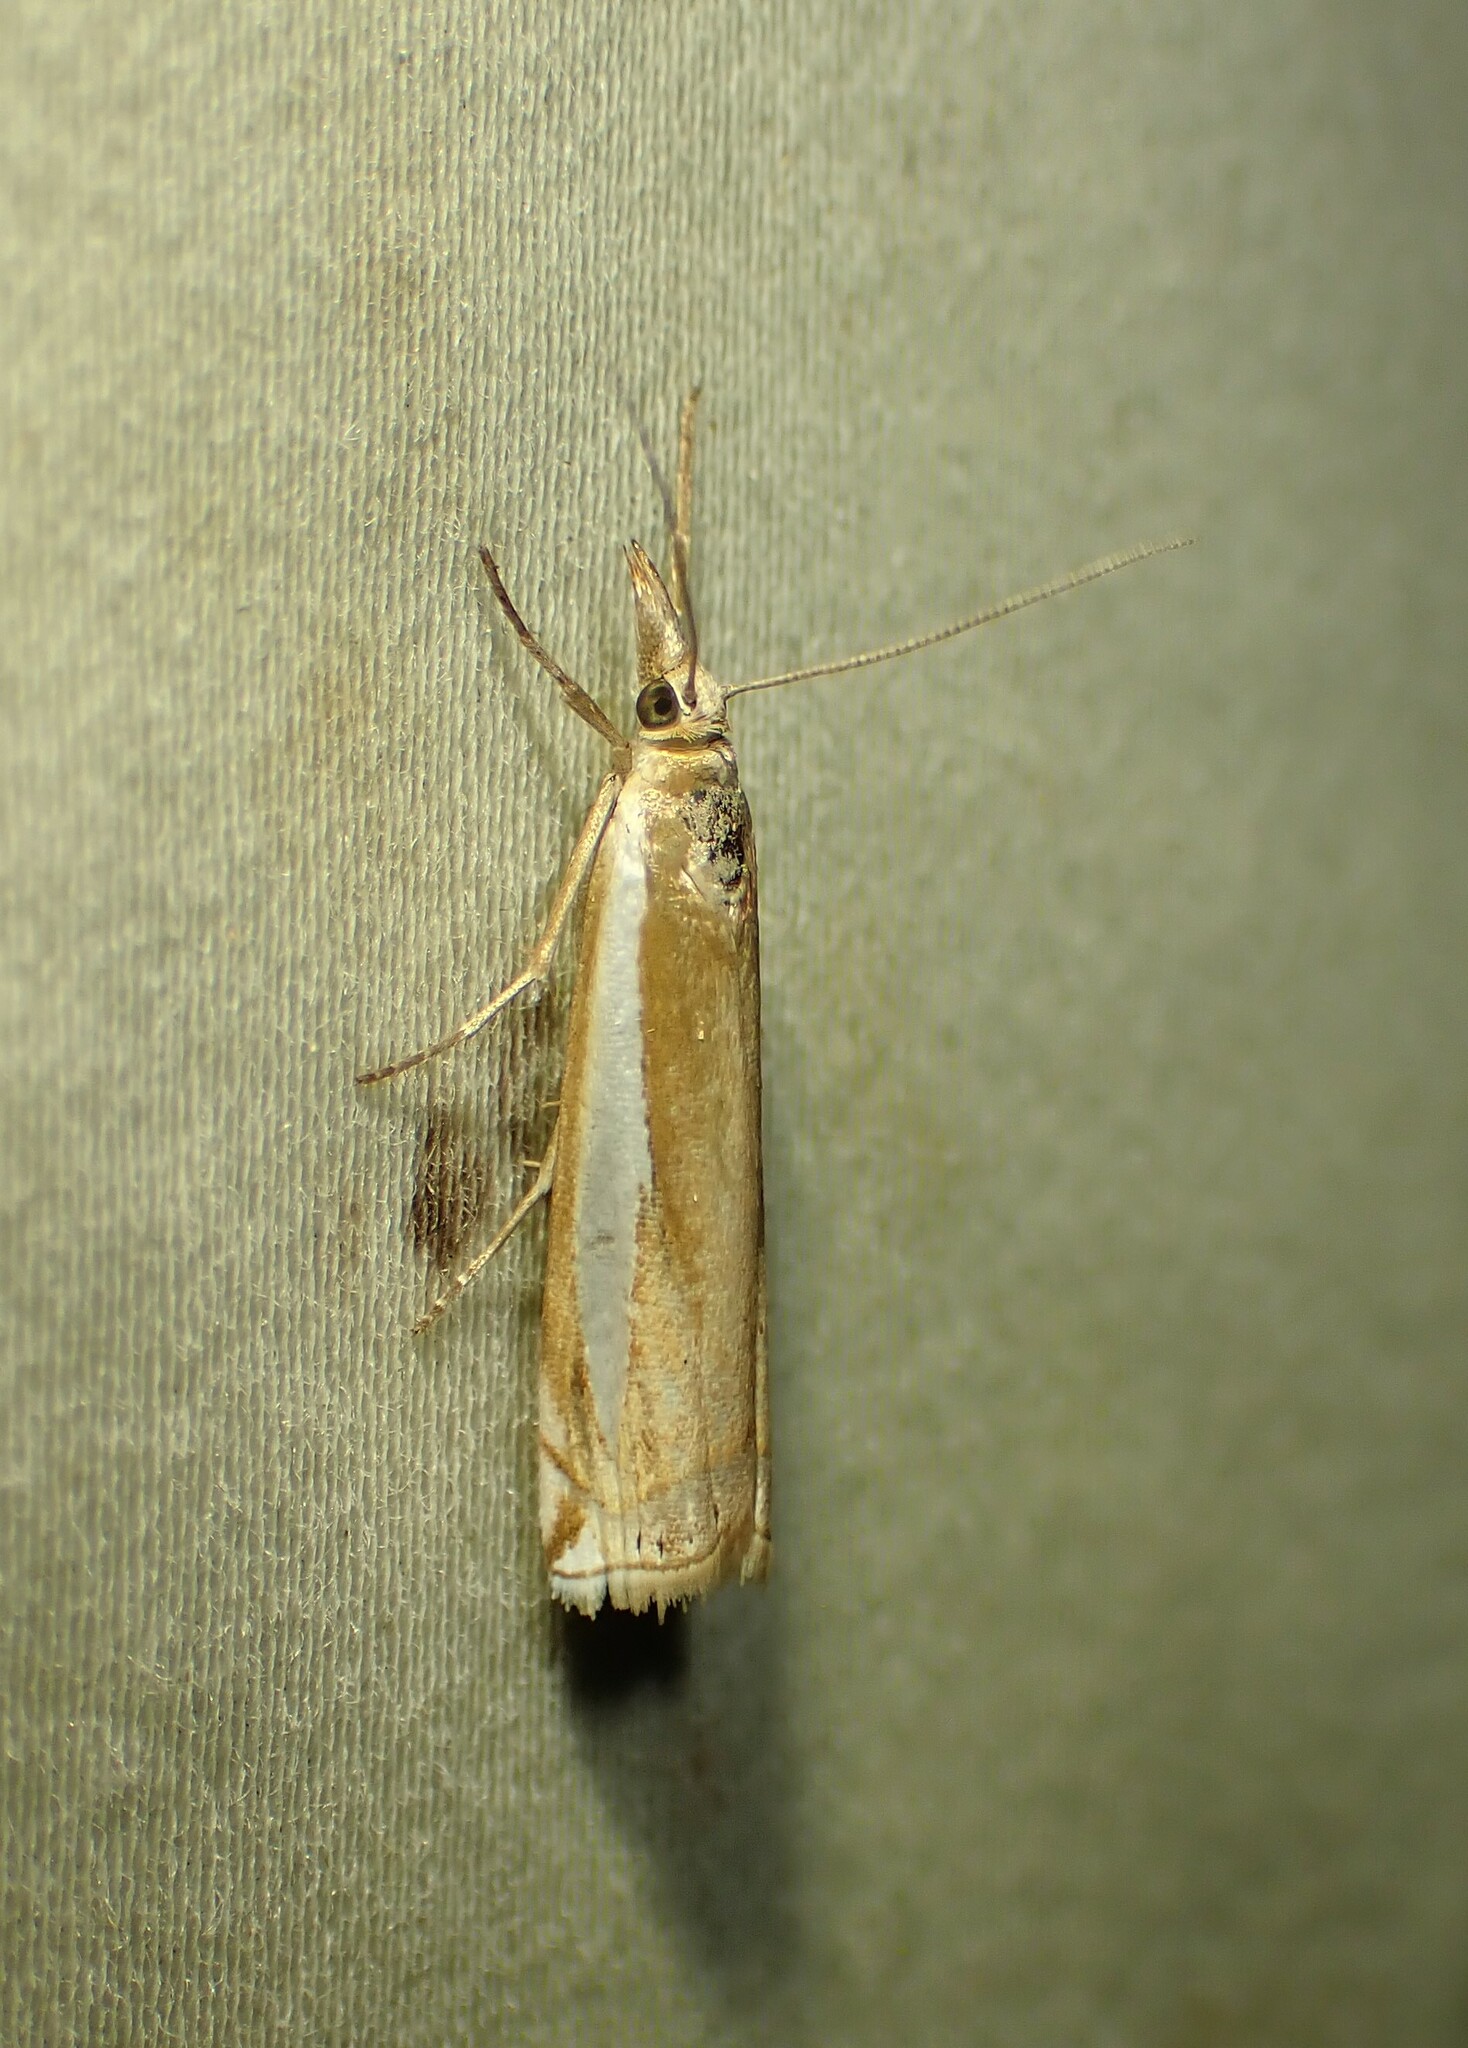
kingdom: Animalia
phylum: Arthropoda
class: Insecta
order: Lepidoptera
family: Crambidae
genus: Crambus
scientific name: Crambus praefectellus
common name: Common grass-veneer
